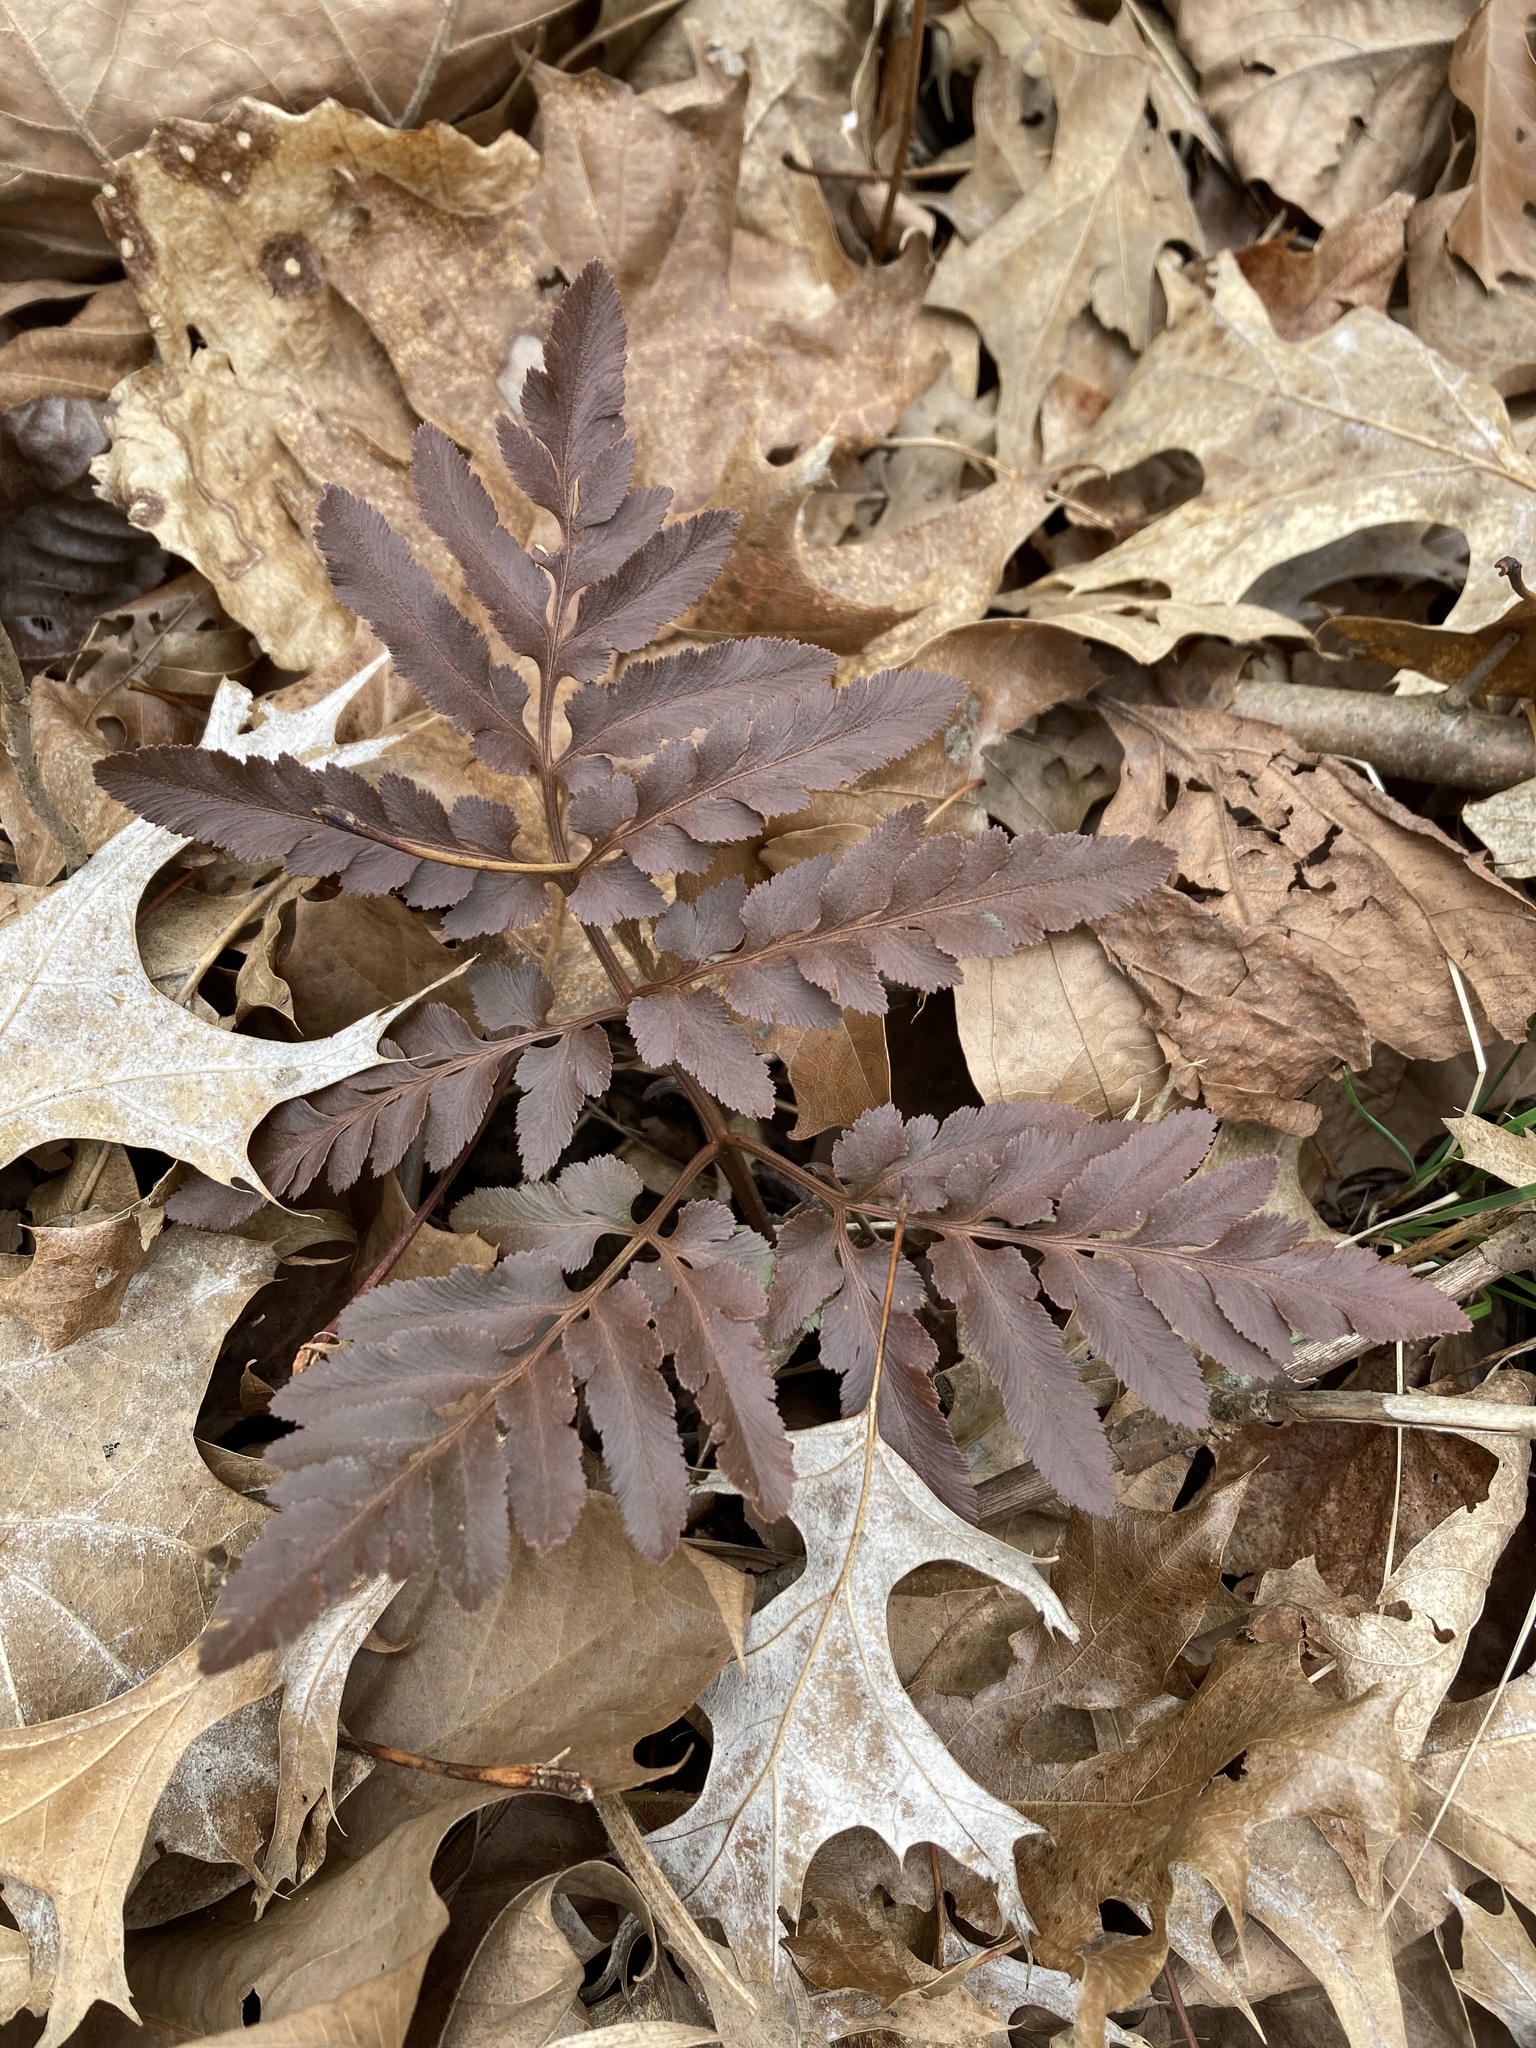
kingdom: Plantae
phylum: Tracheophyta
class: Polypodiopsida
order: Ophioglossales
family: Ophioglossaceae
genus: Sceptridium
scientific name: Sceptridium dissectum
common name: Cut-leaved grapefern
